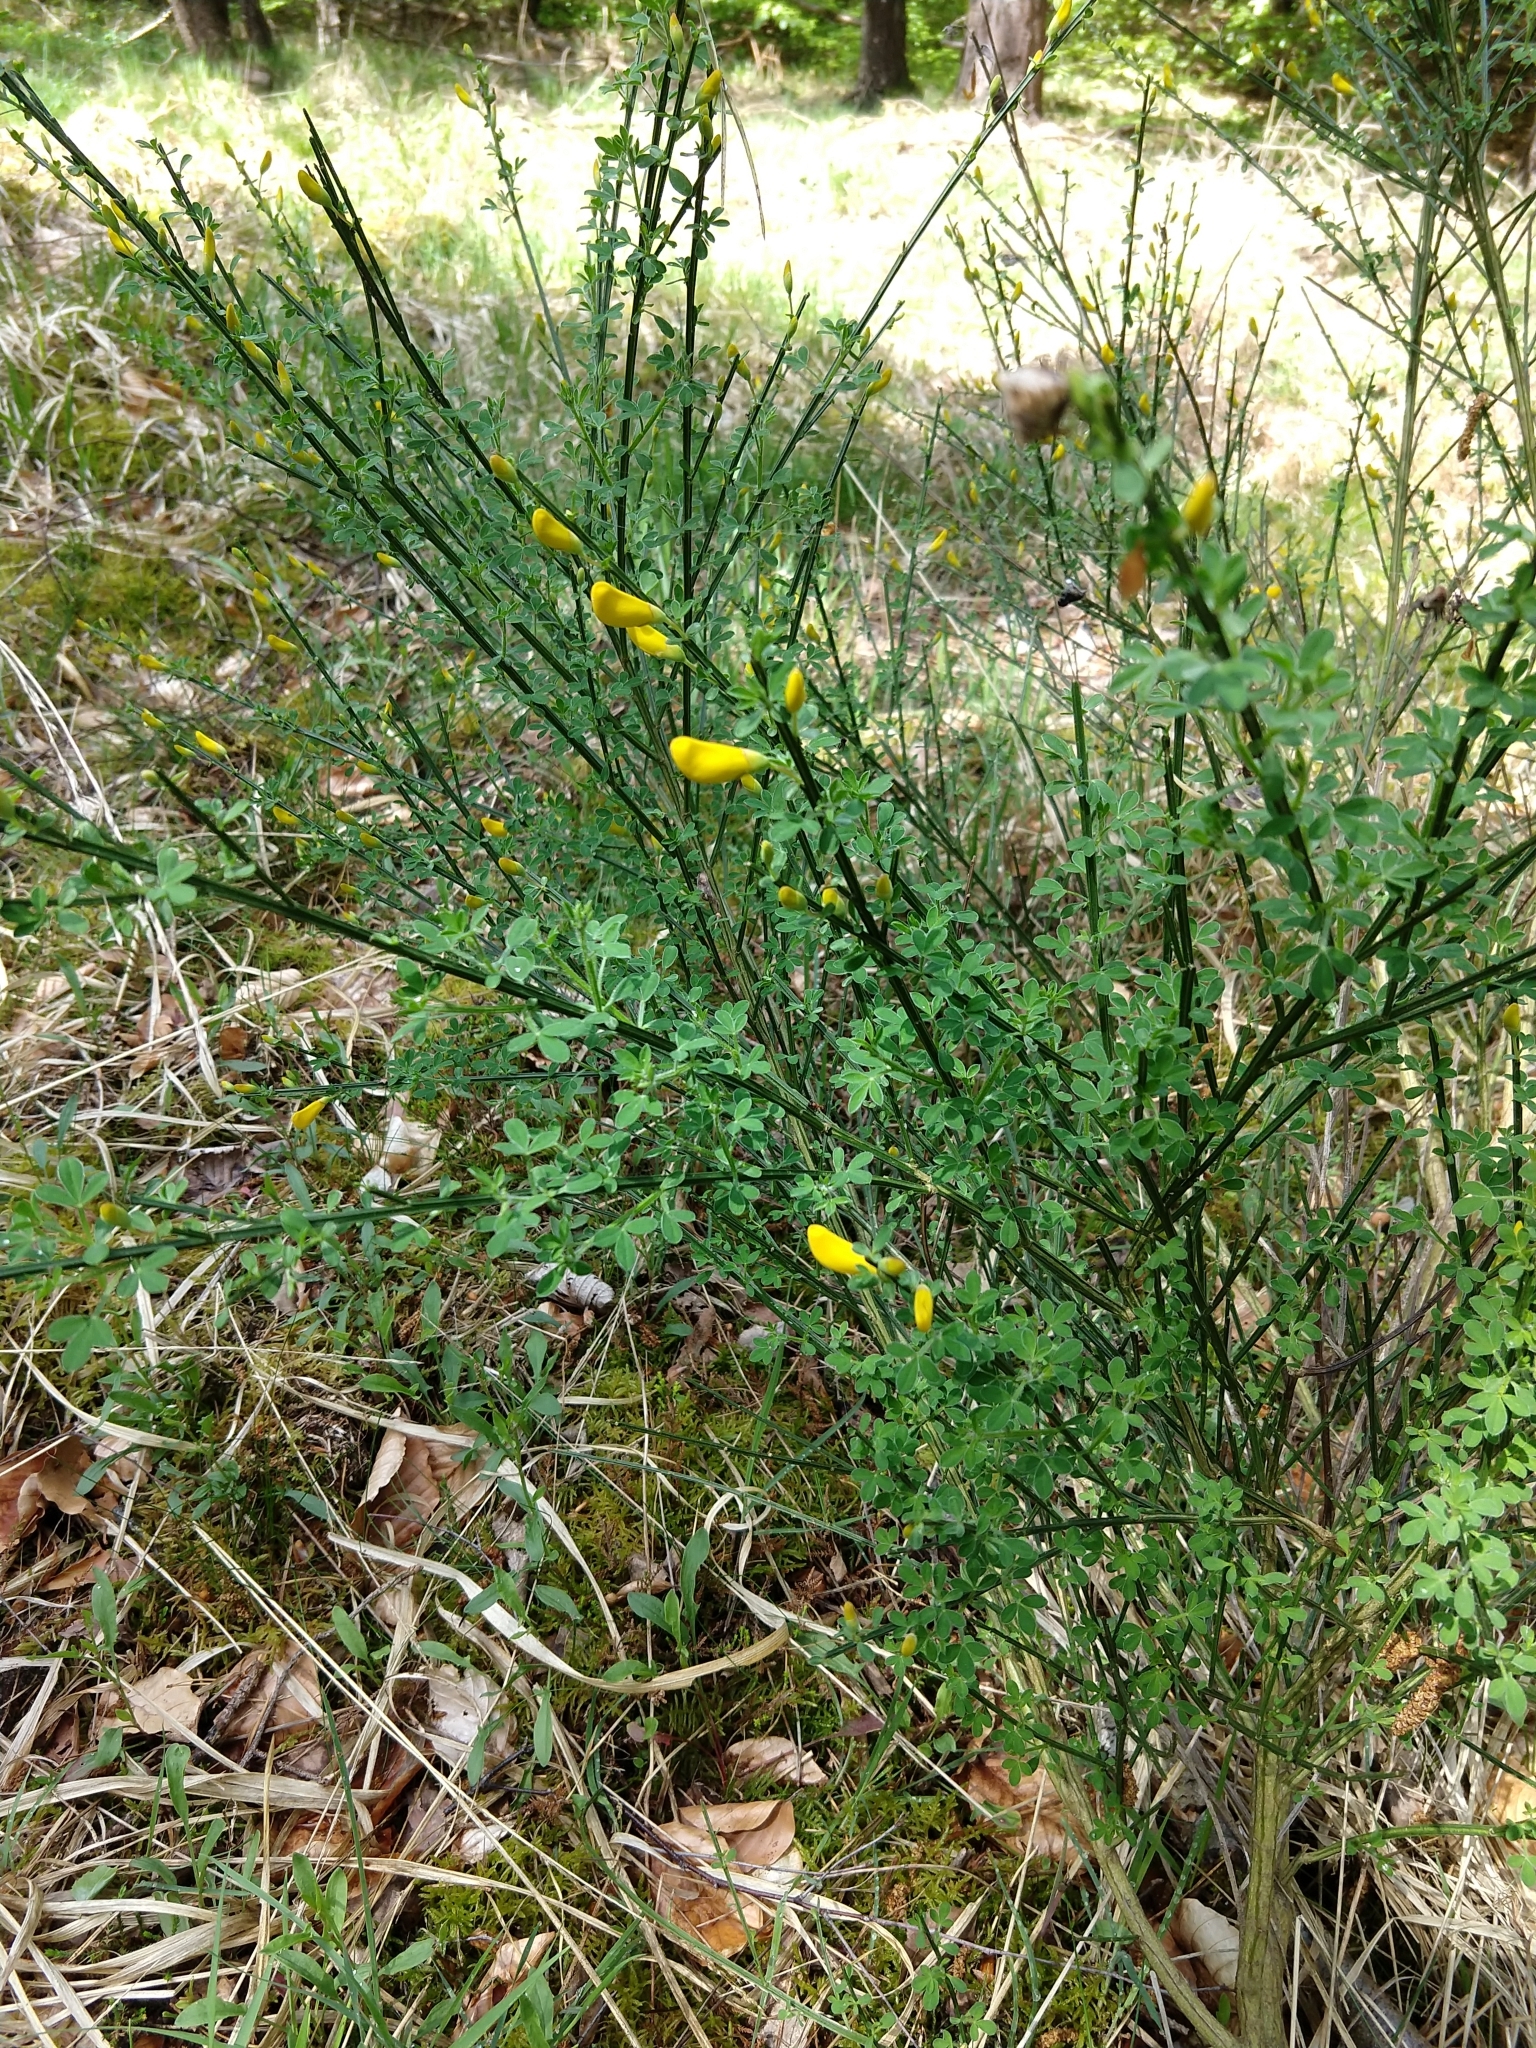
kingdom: Plantae
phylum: Tracheophyta
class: Magnoliopsida
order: Fabales
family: Fabaceae
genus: Cytisus
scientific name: Cytisus scoparius
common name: Scotch broom
